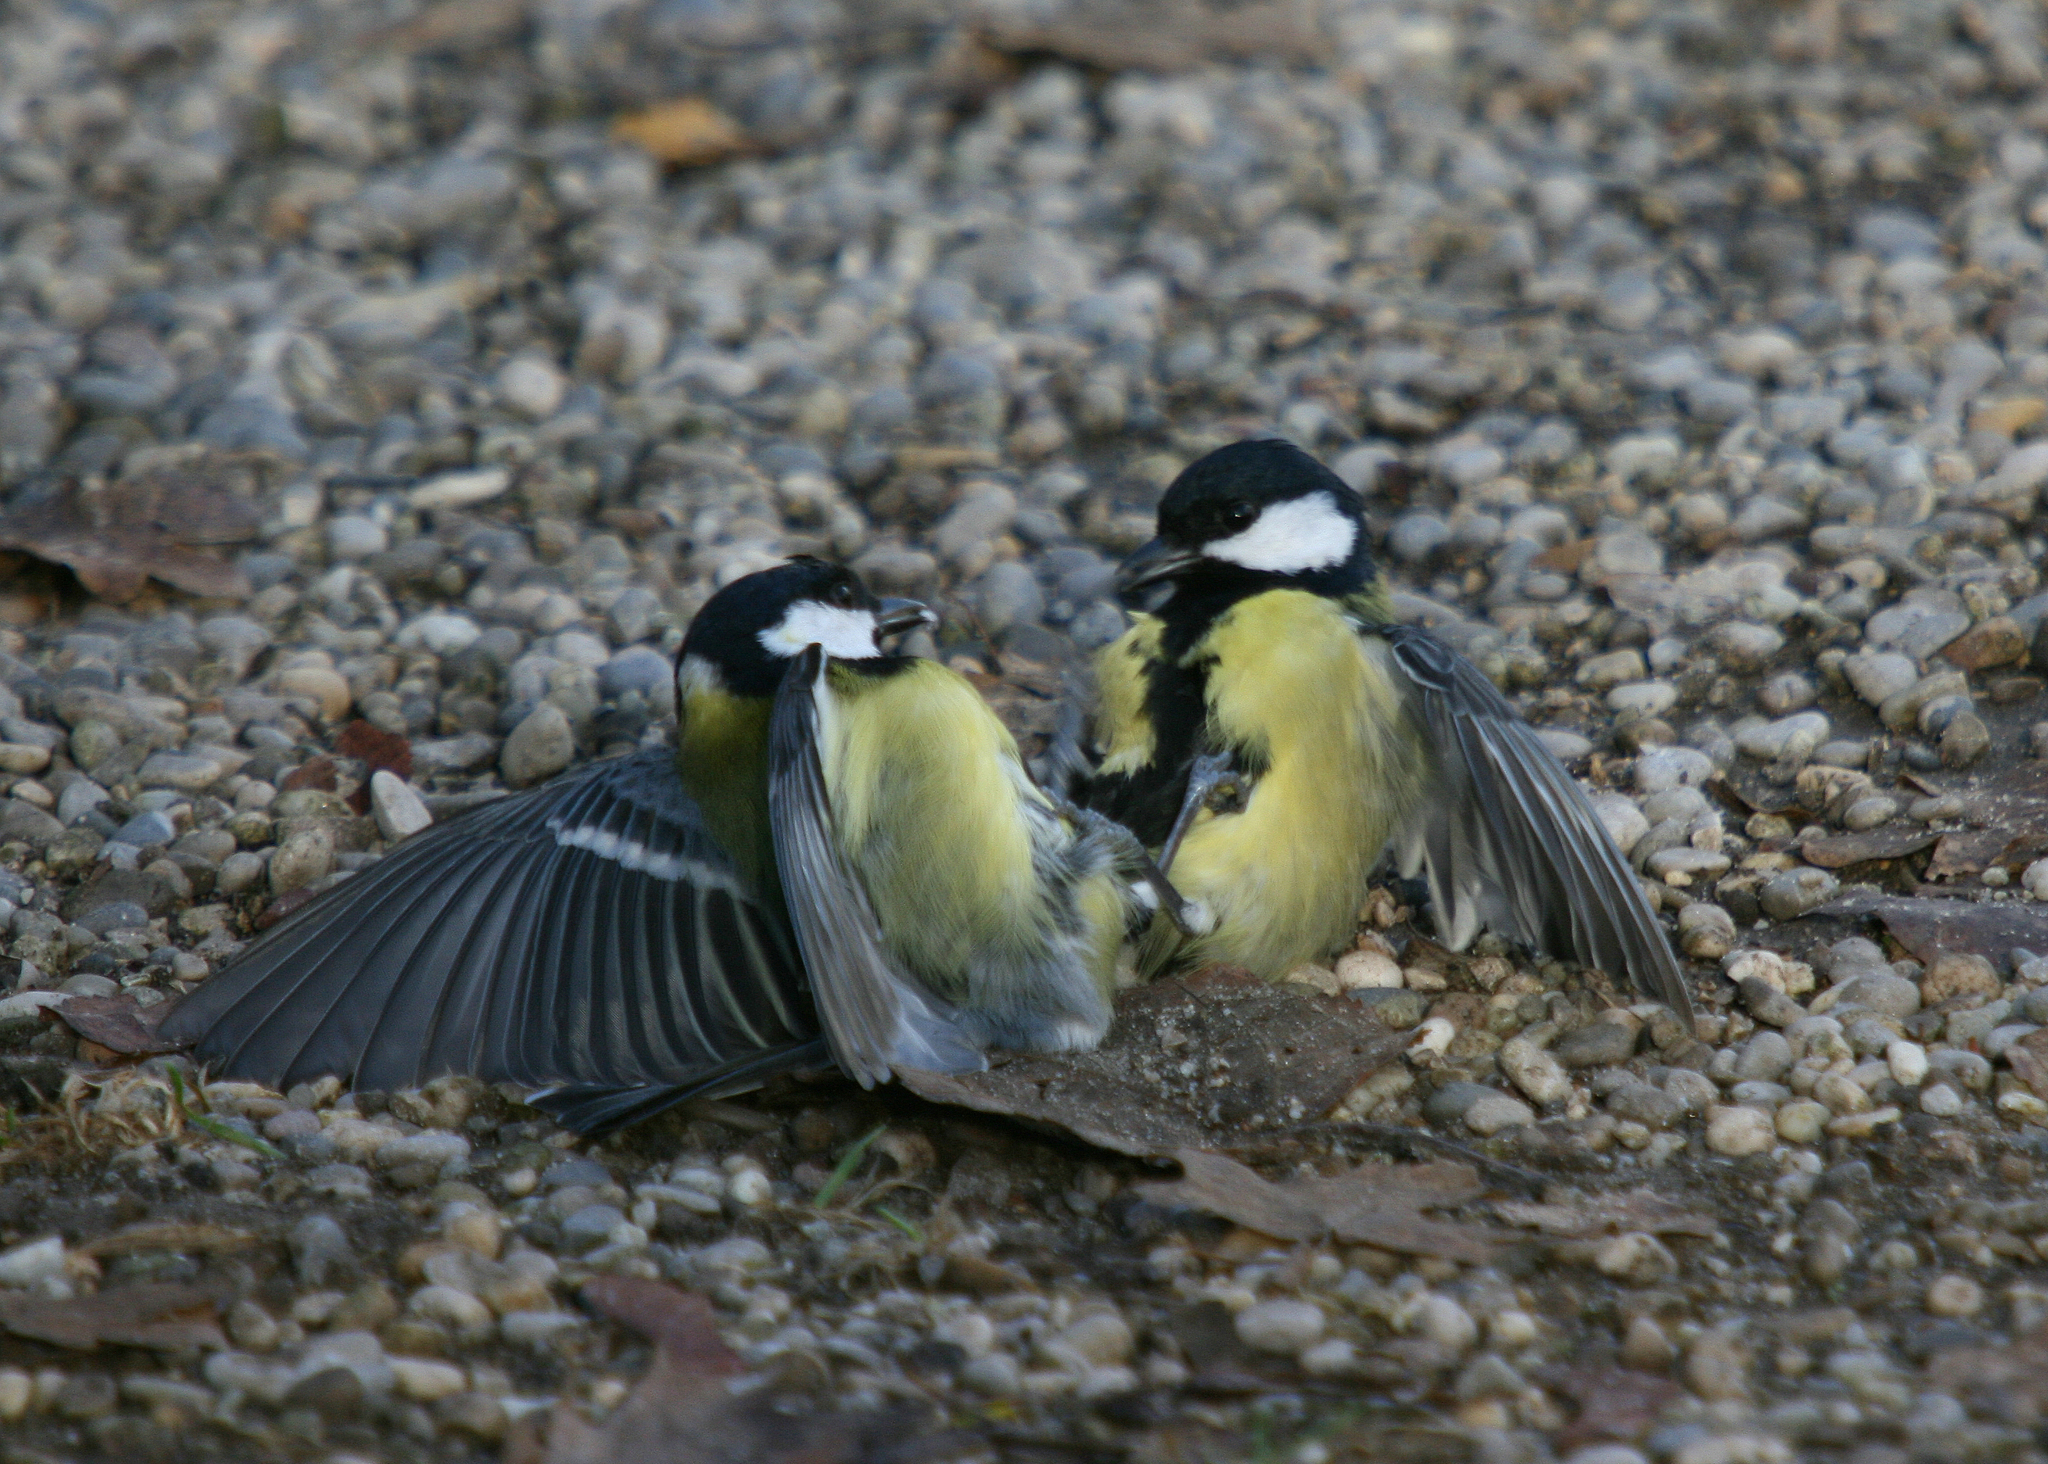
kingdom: Animalia
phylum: Chordata
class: Aves
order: Passeriformes
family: Paridae
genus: Parus
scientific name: Parus major
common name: Great tit
